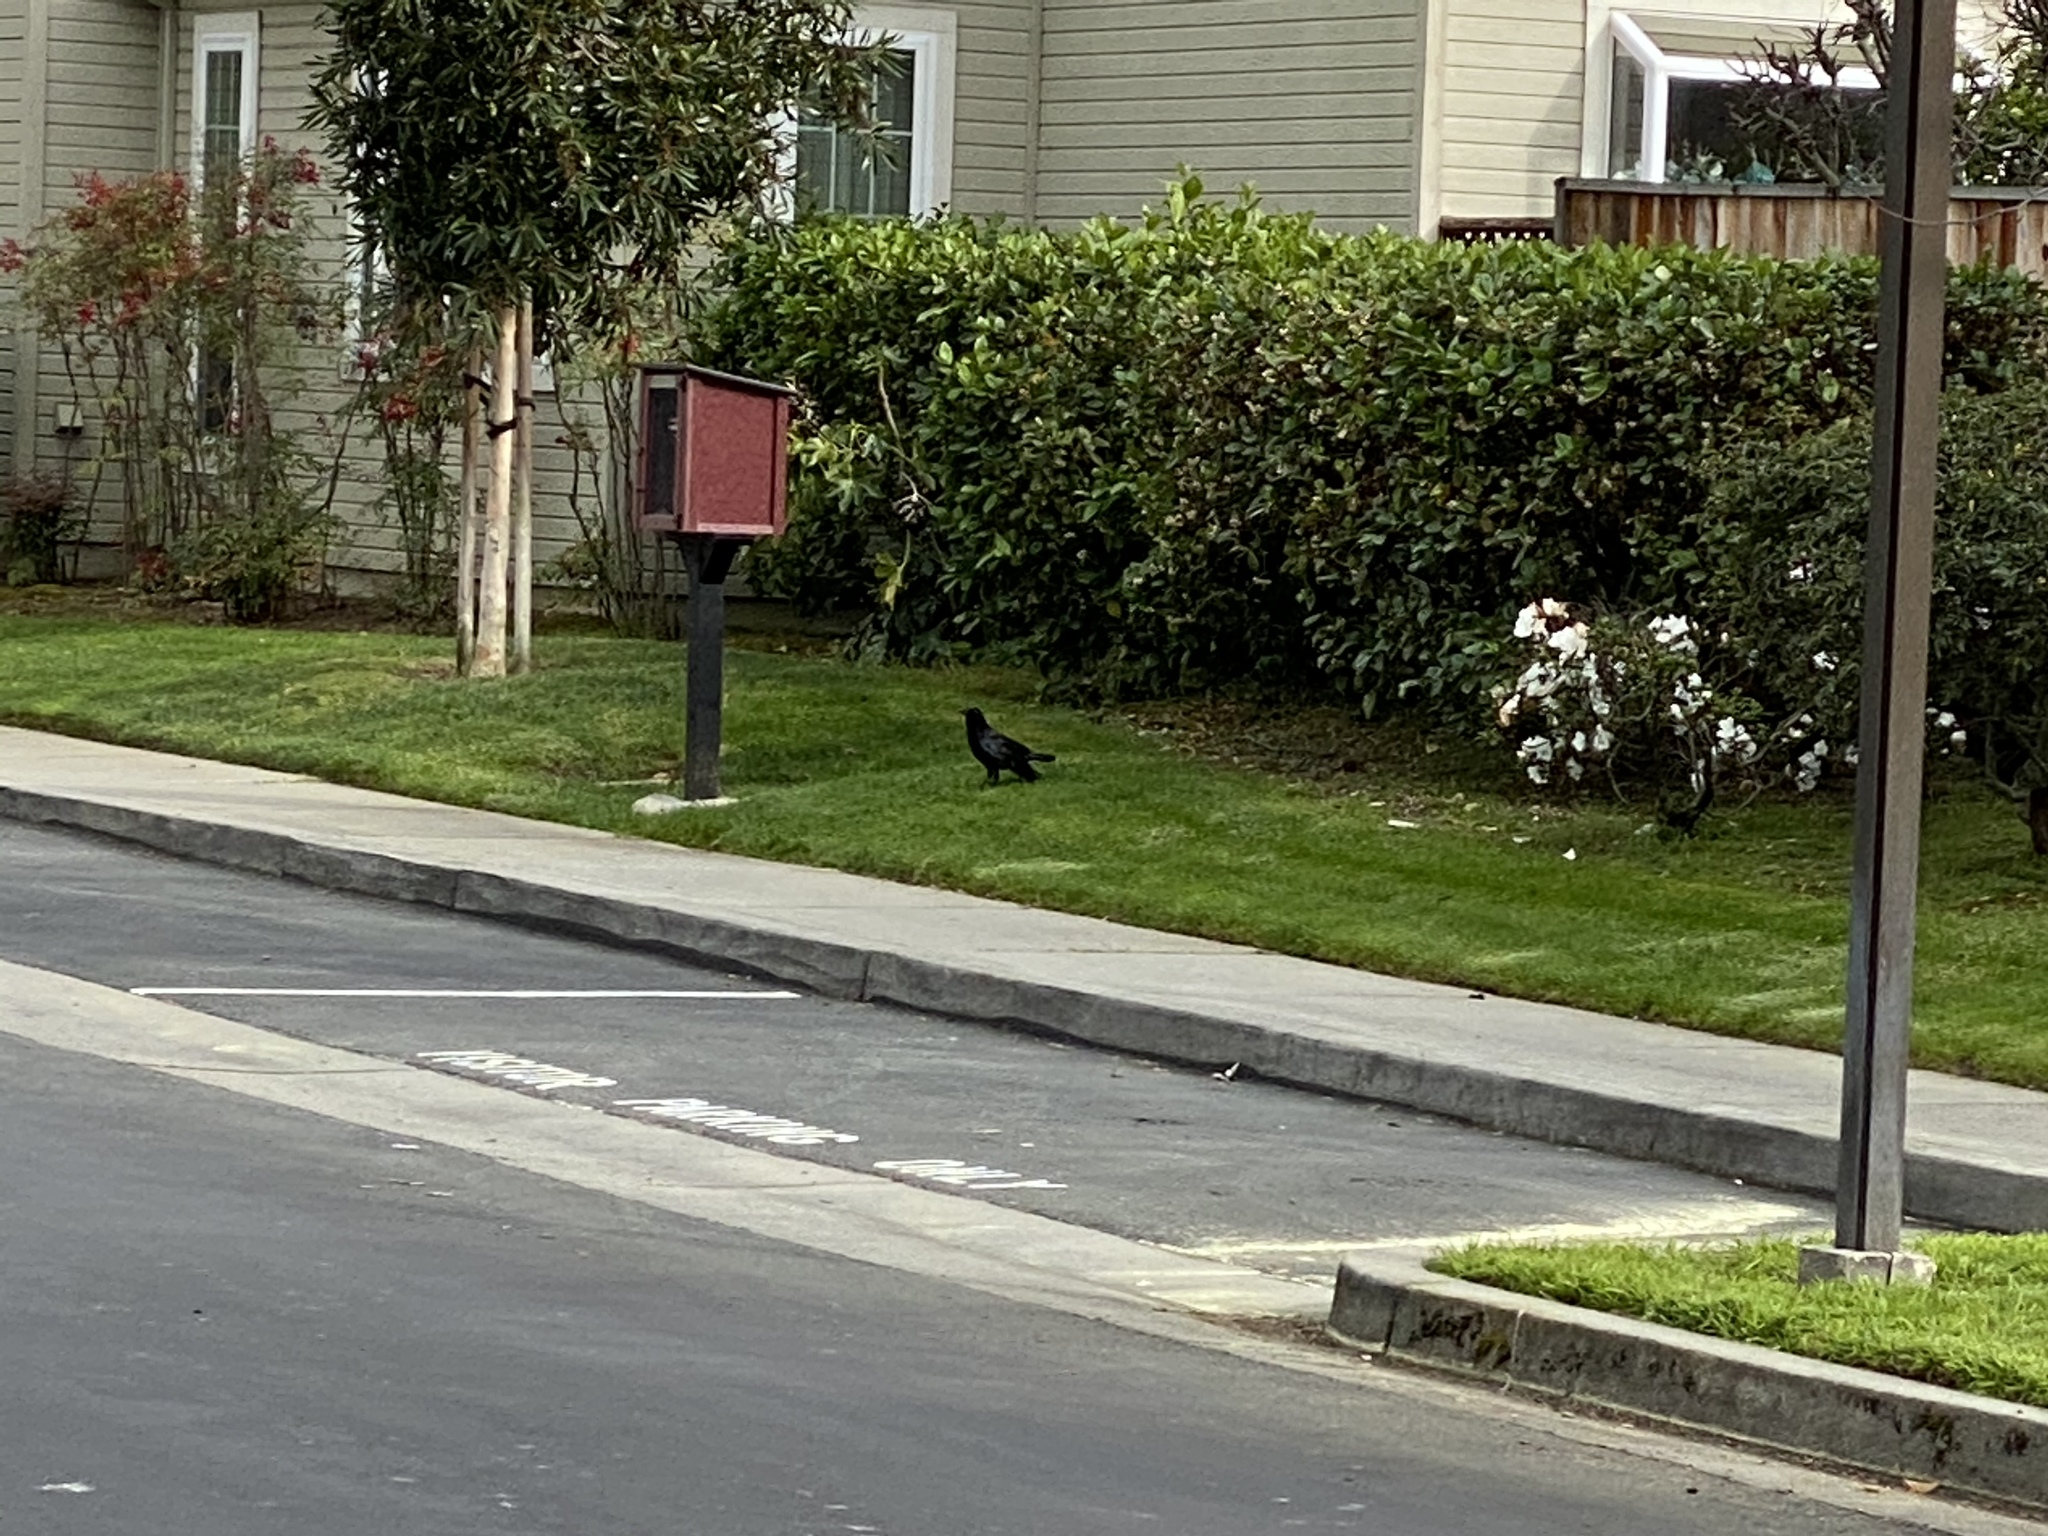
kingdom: Animalia
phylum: Chordata
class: Aves
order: Passeriformes
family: Corvidae
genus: Corvus
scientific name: Corvus brachyrhynchos
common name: American crow
